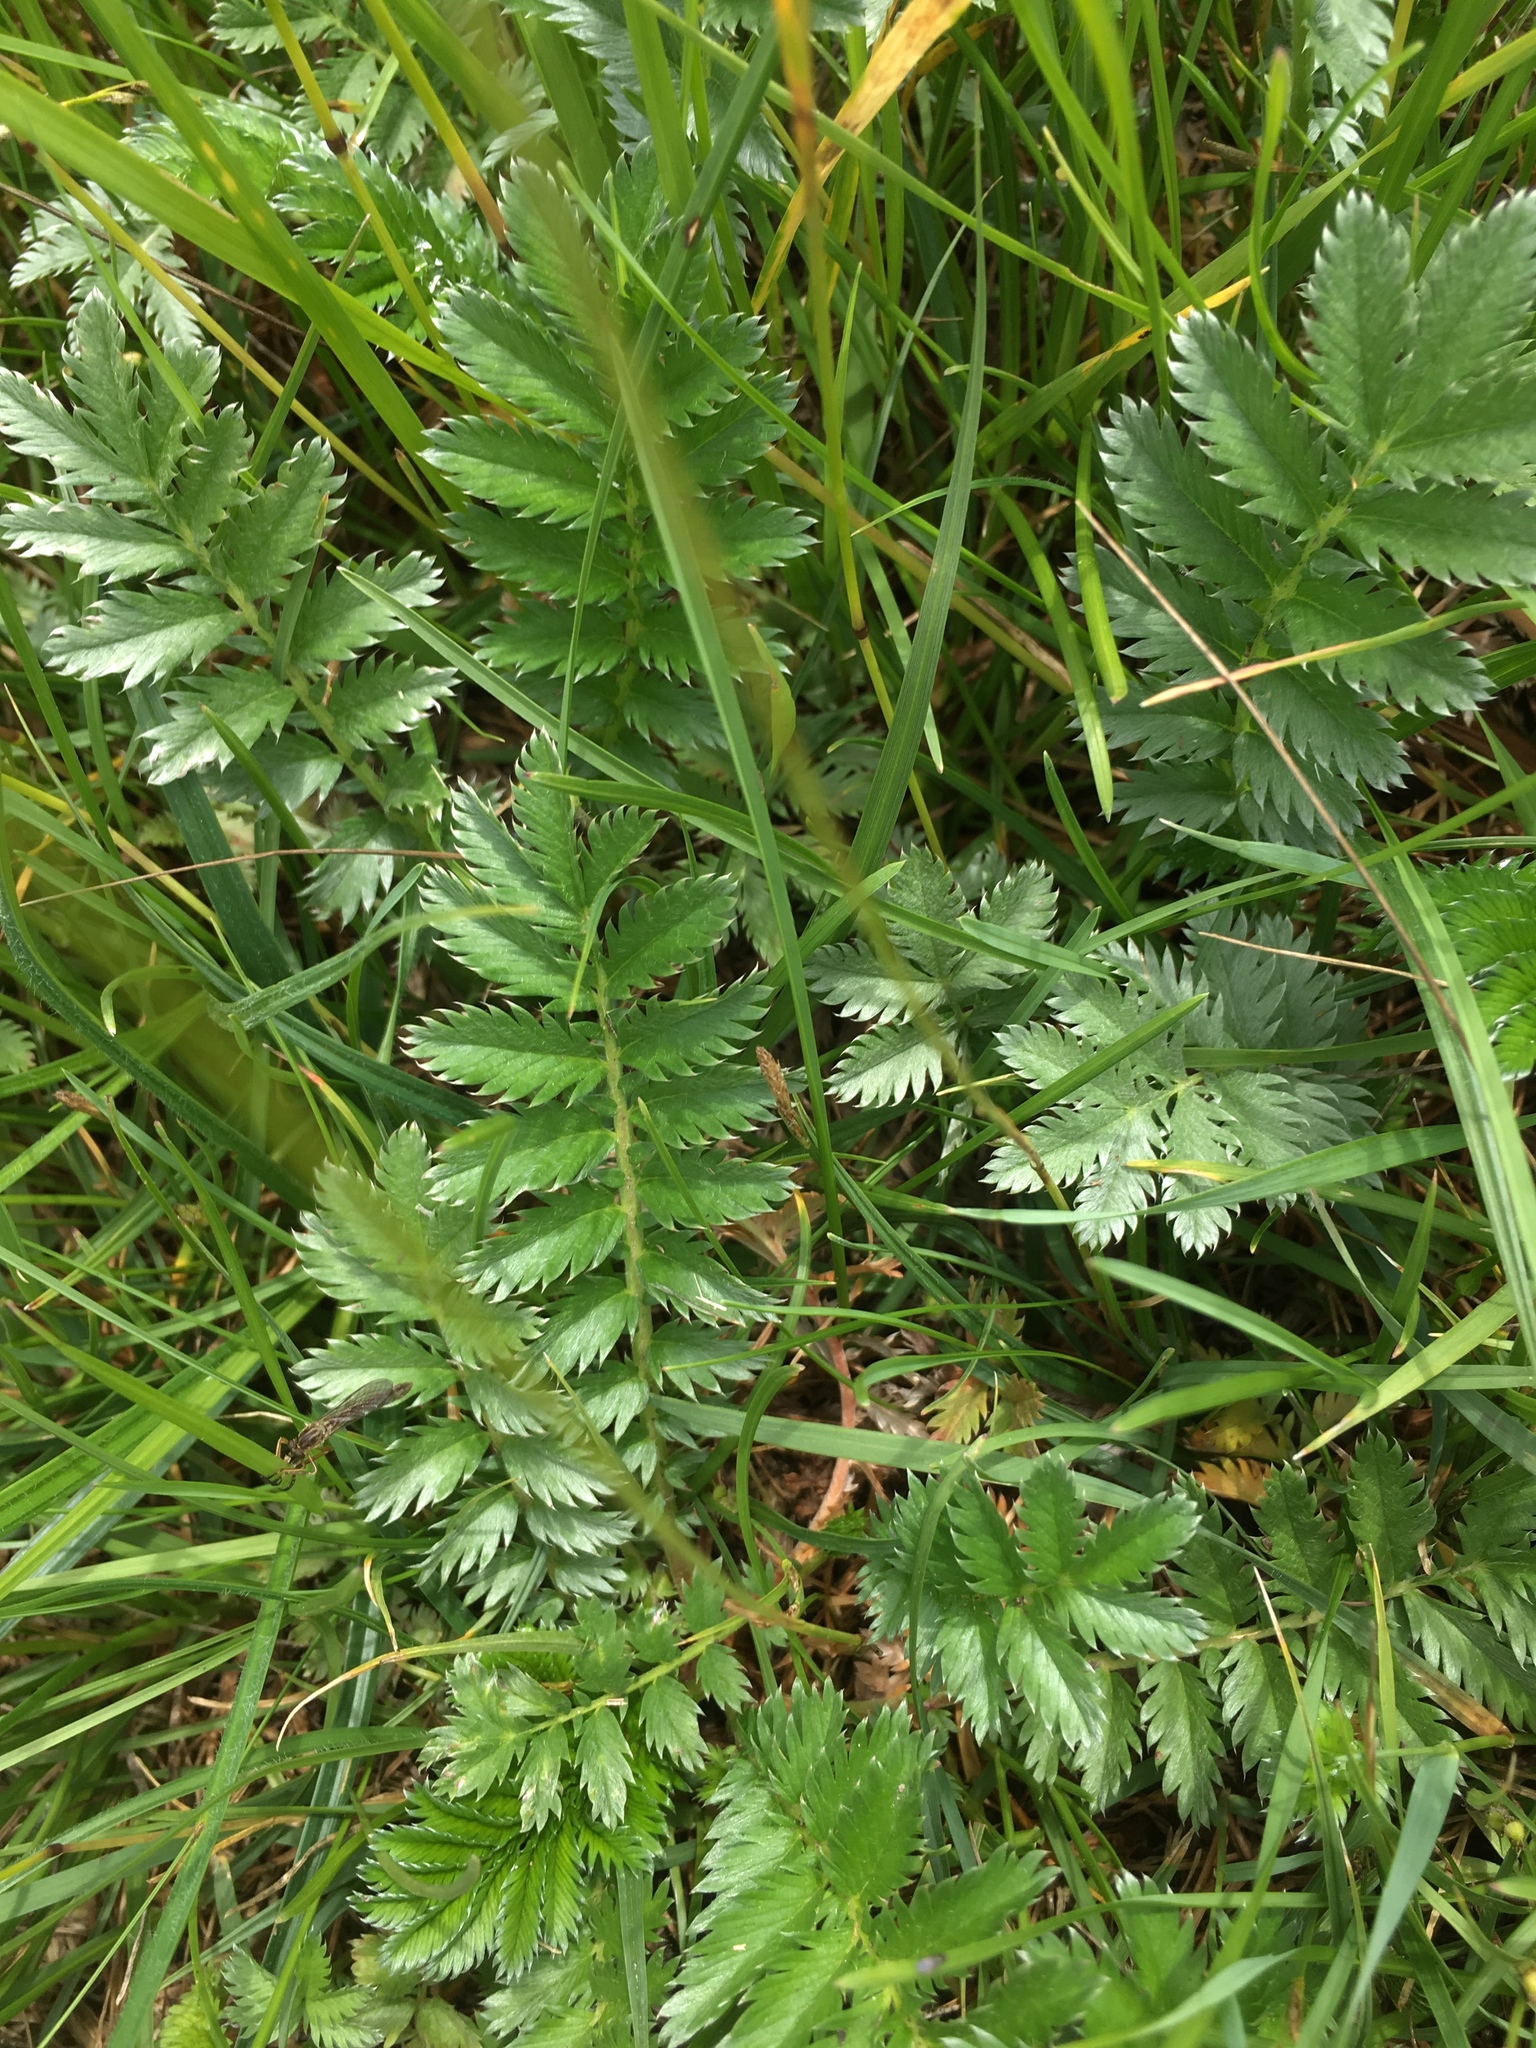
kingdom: Plantae
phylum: Tracheophyta
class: Magnoliopsida
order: Rosales
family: Rosaceae
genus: Argentina
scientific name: Argentina anserina
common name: Common silverweed
